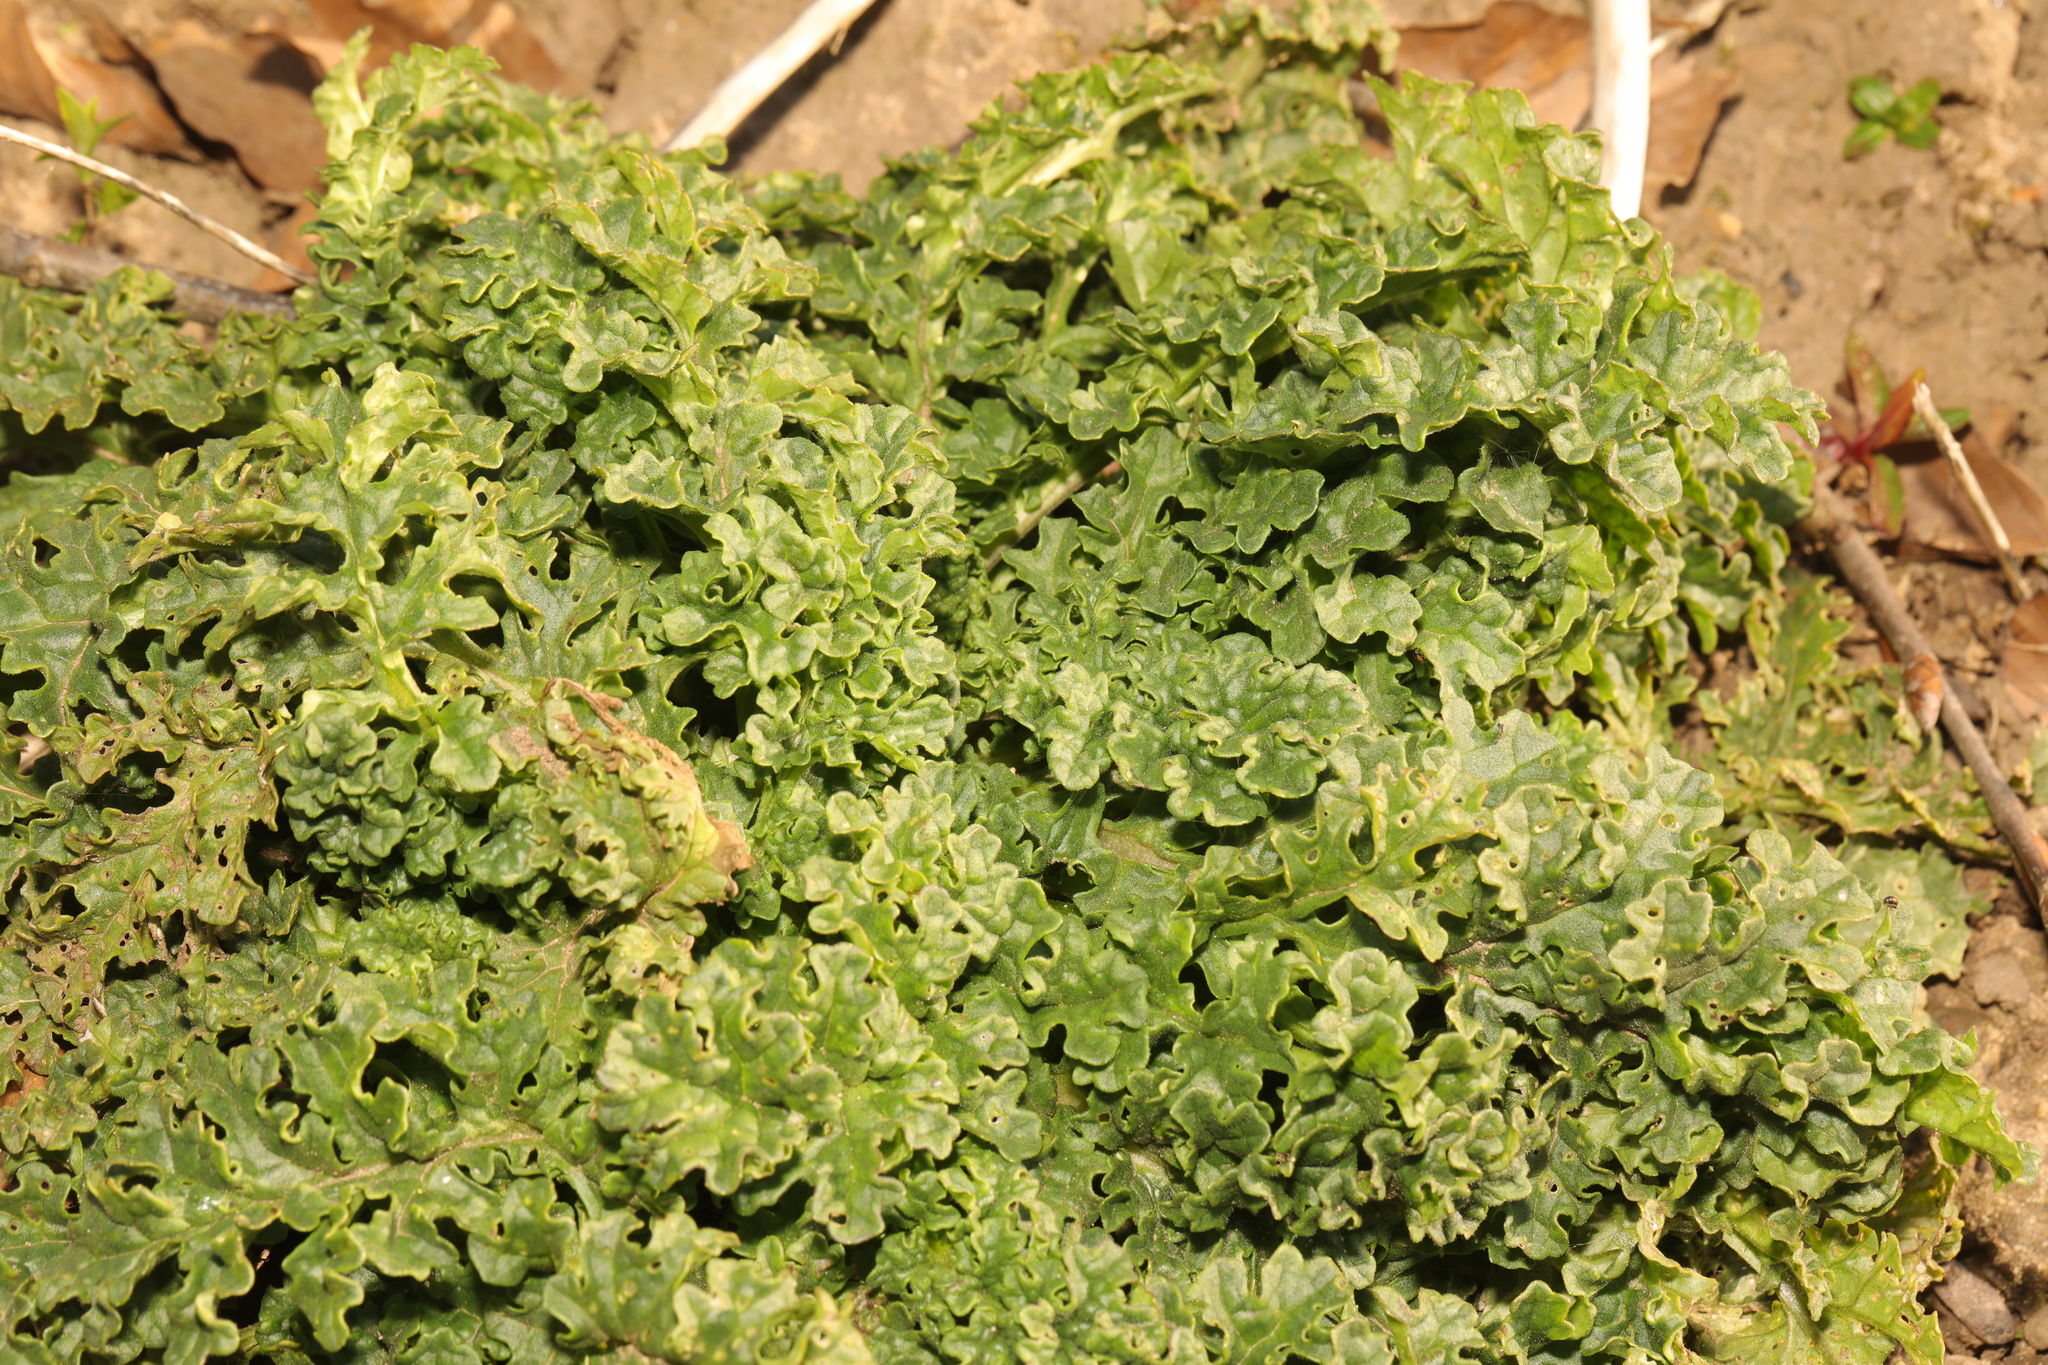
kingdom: Plantae
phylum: Tracheophyta
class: Magnoliopsida
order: Asterales
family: Asteraceae
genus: Jacobaea
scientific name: Jacobaea vulgaris
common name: Stinking willie
